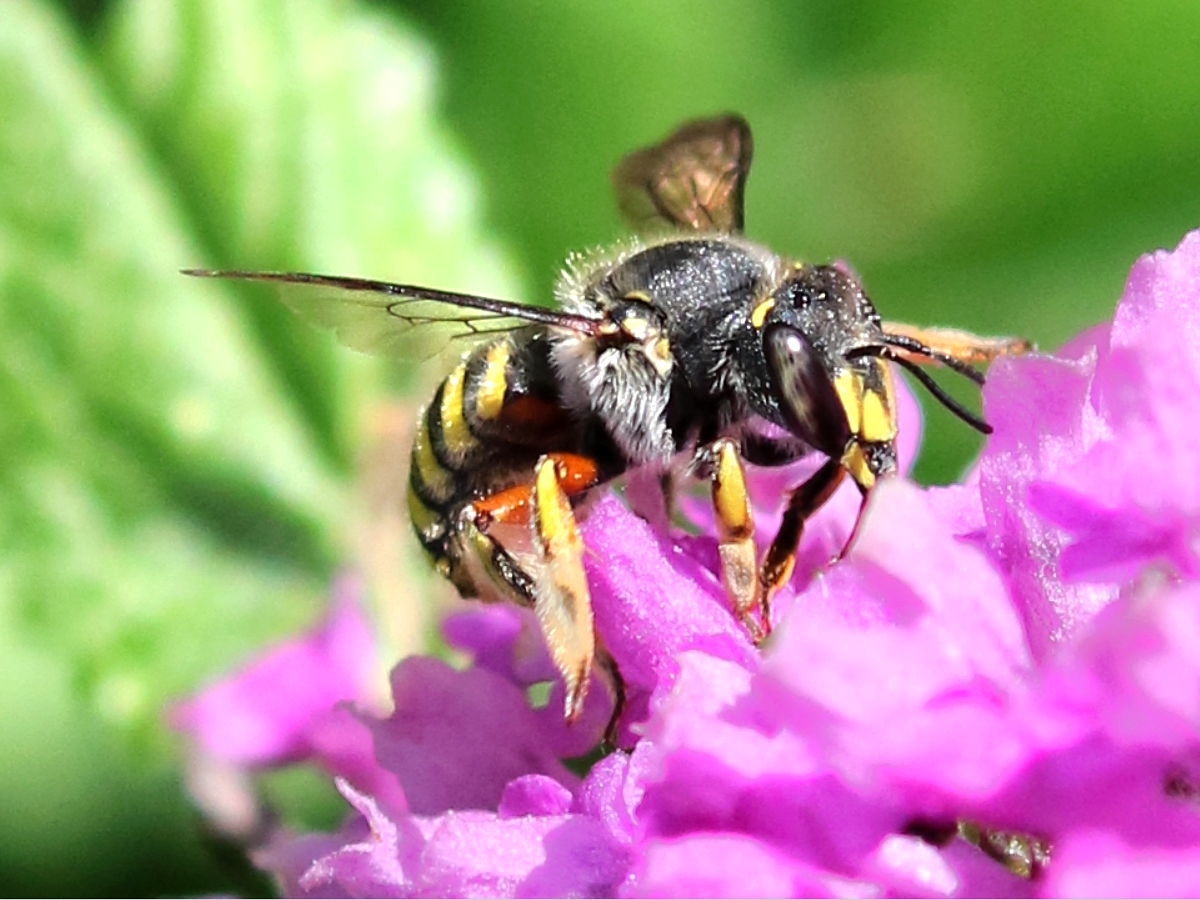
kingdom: Animalia
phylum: Arthropoda
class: Insecta
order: Hymenoptera
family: Megachilidae
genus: Anthidium
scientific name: Anthidium manicatum
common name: Wool carder bee
